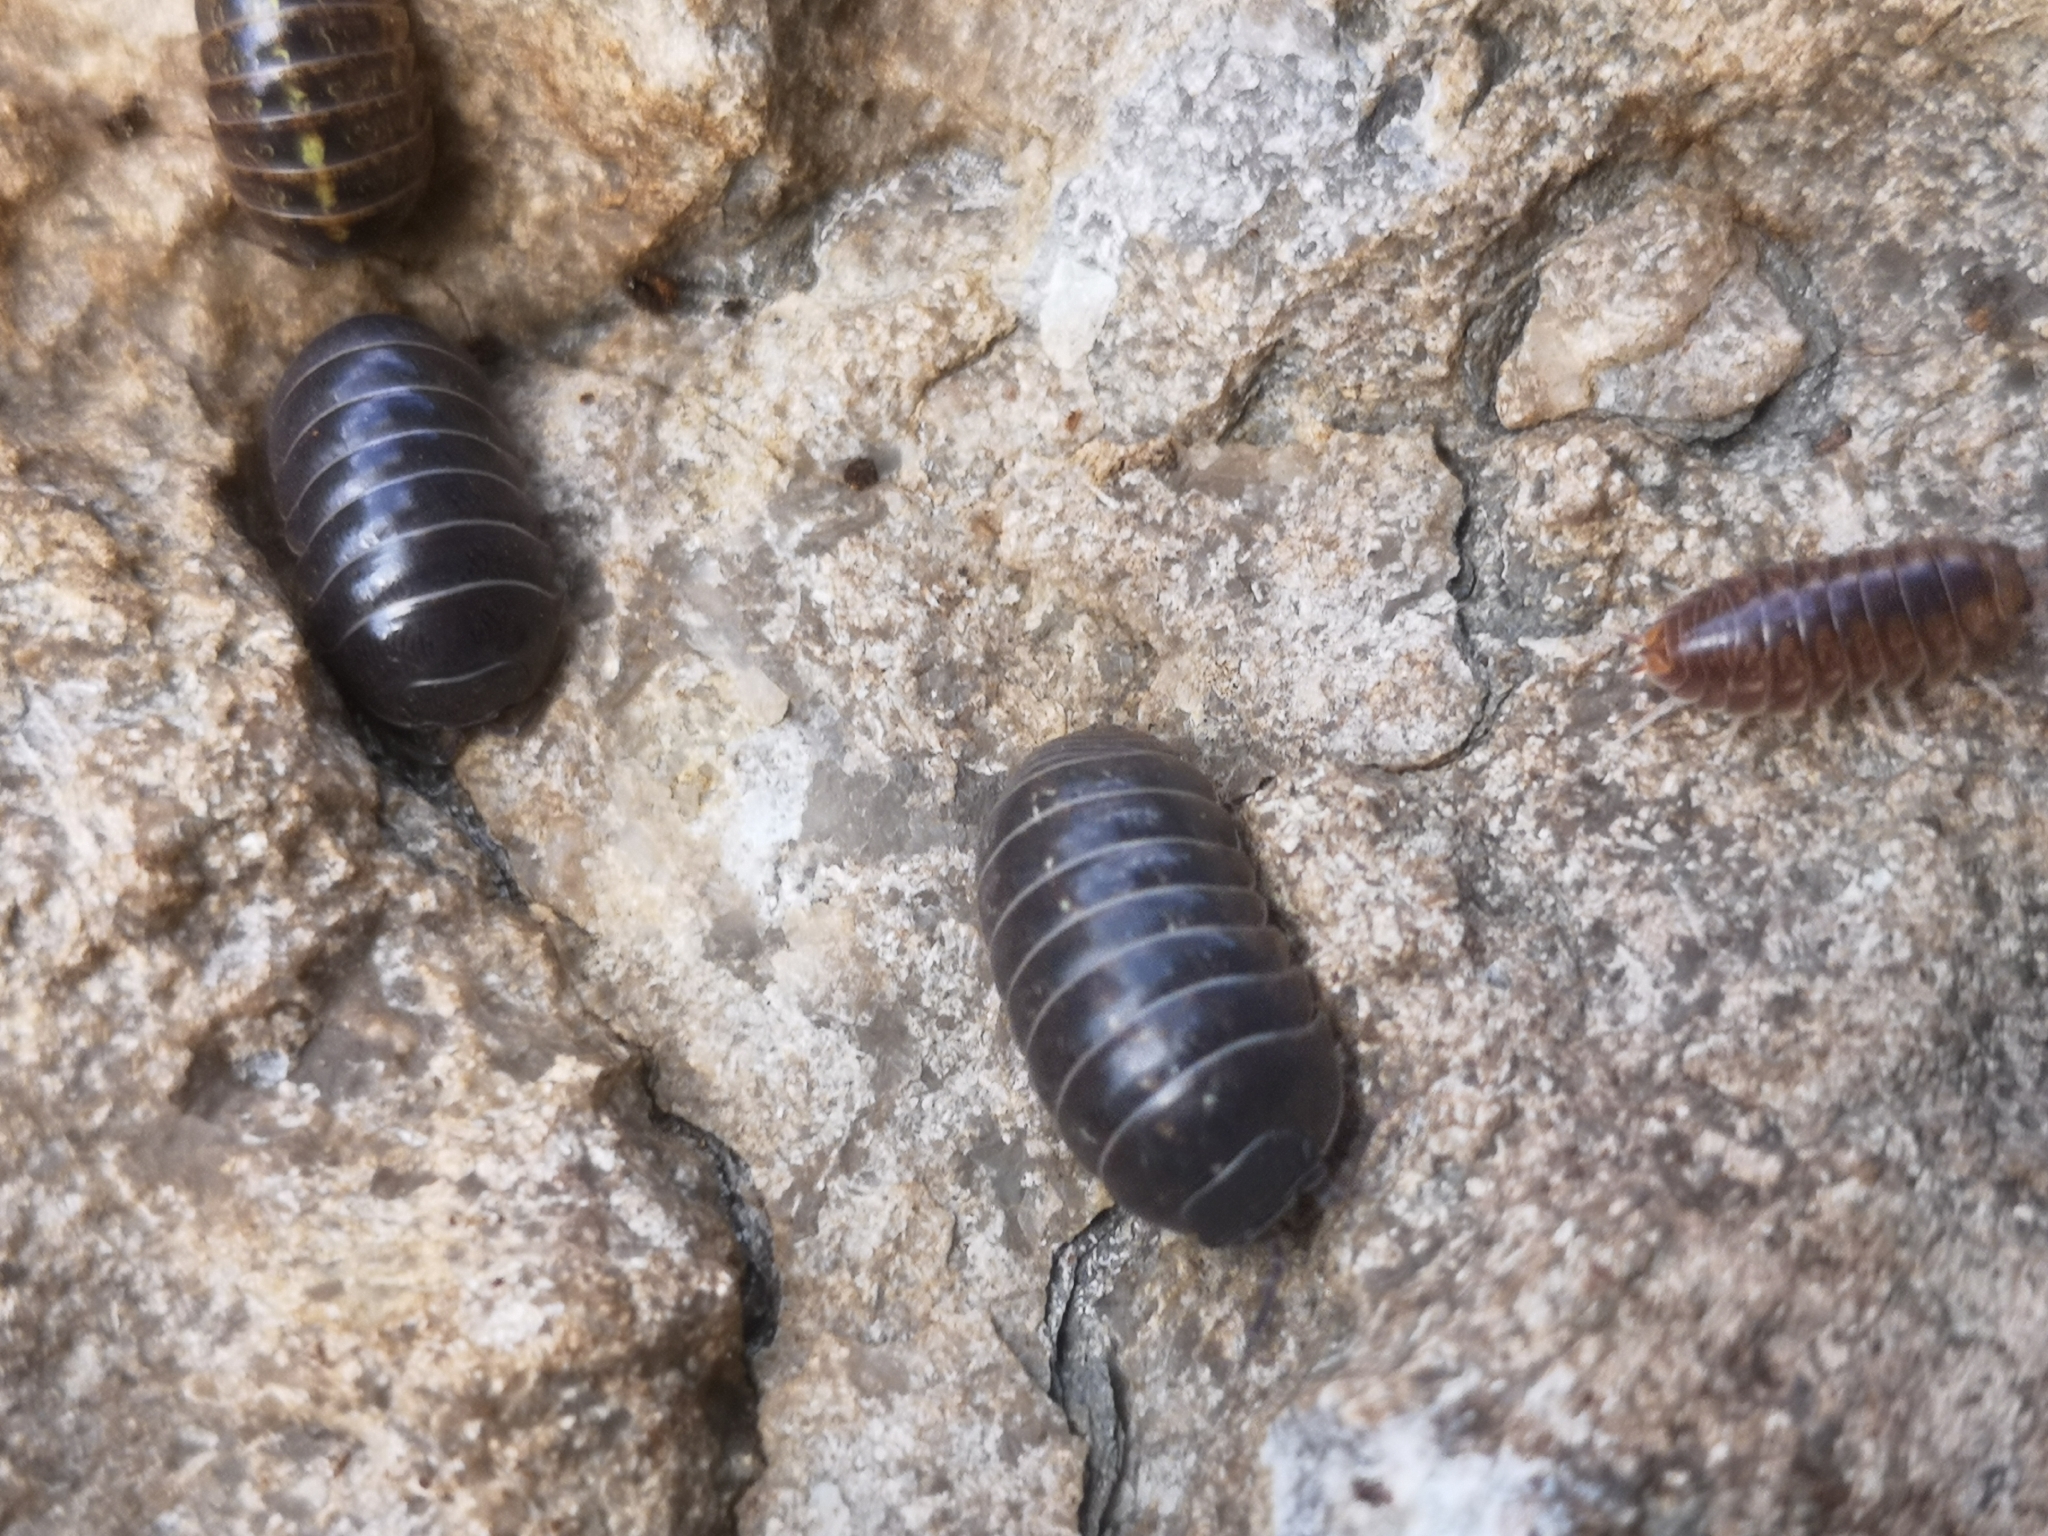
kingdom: Animalia
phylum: Arthropoda
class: Malacostraca
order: Isopoda
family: Armadillidiidae
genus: Armadillidium
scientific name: Armadillidium vulgare
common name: Common pill woodlouse
